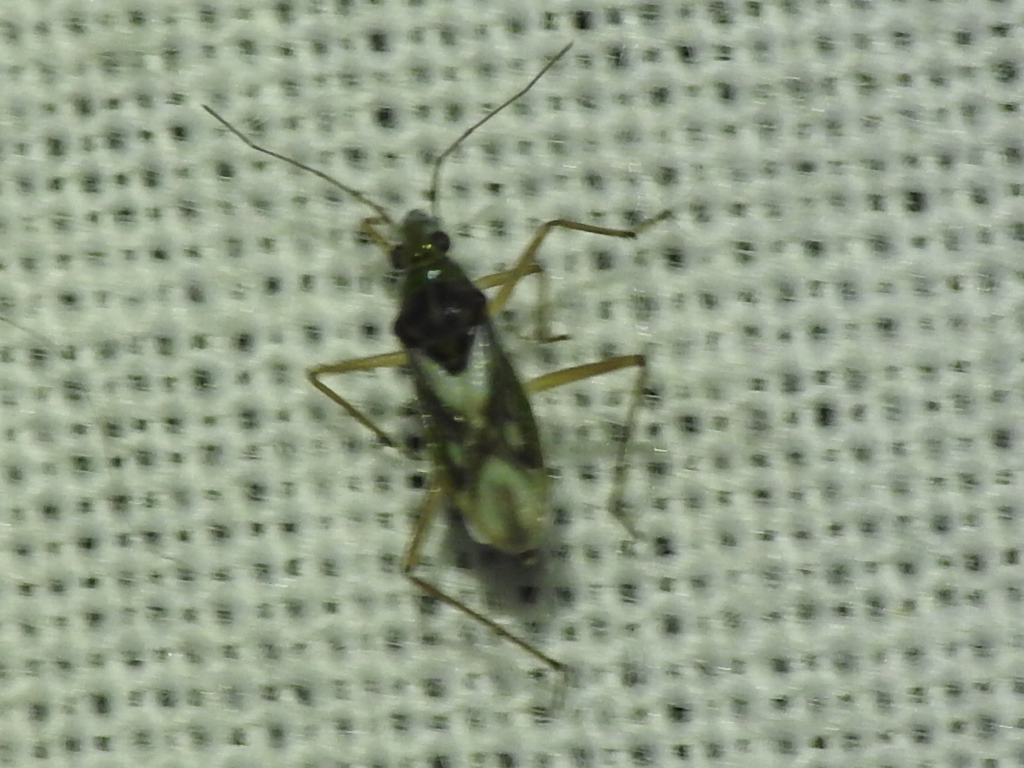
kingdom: Animalia
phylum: Arthropoda
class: Insecta
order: Hemiptera
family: Mesoveliidae
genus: Mesovelia
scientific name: Mesovelia mulsanti
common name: Water treaders
